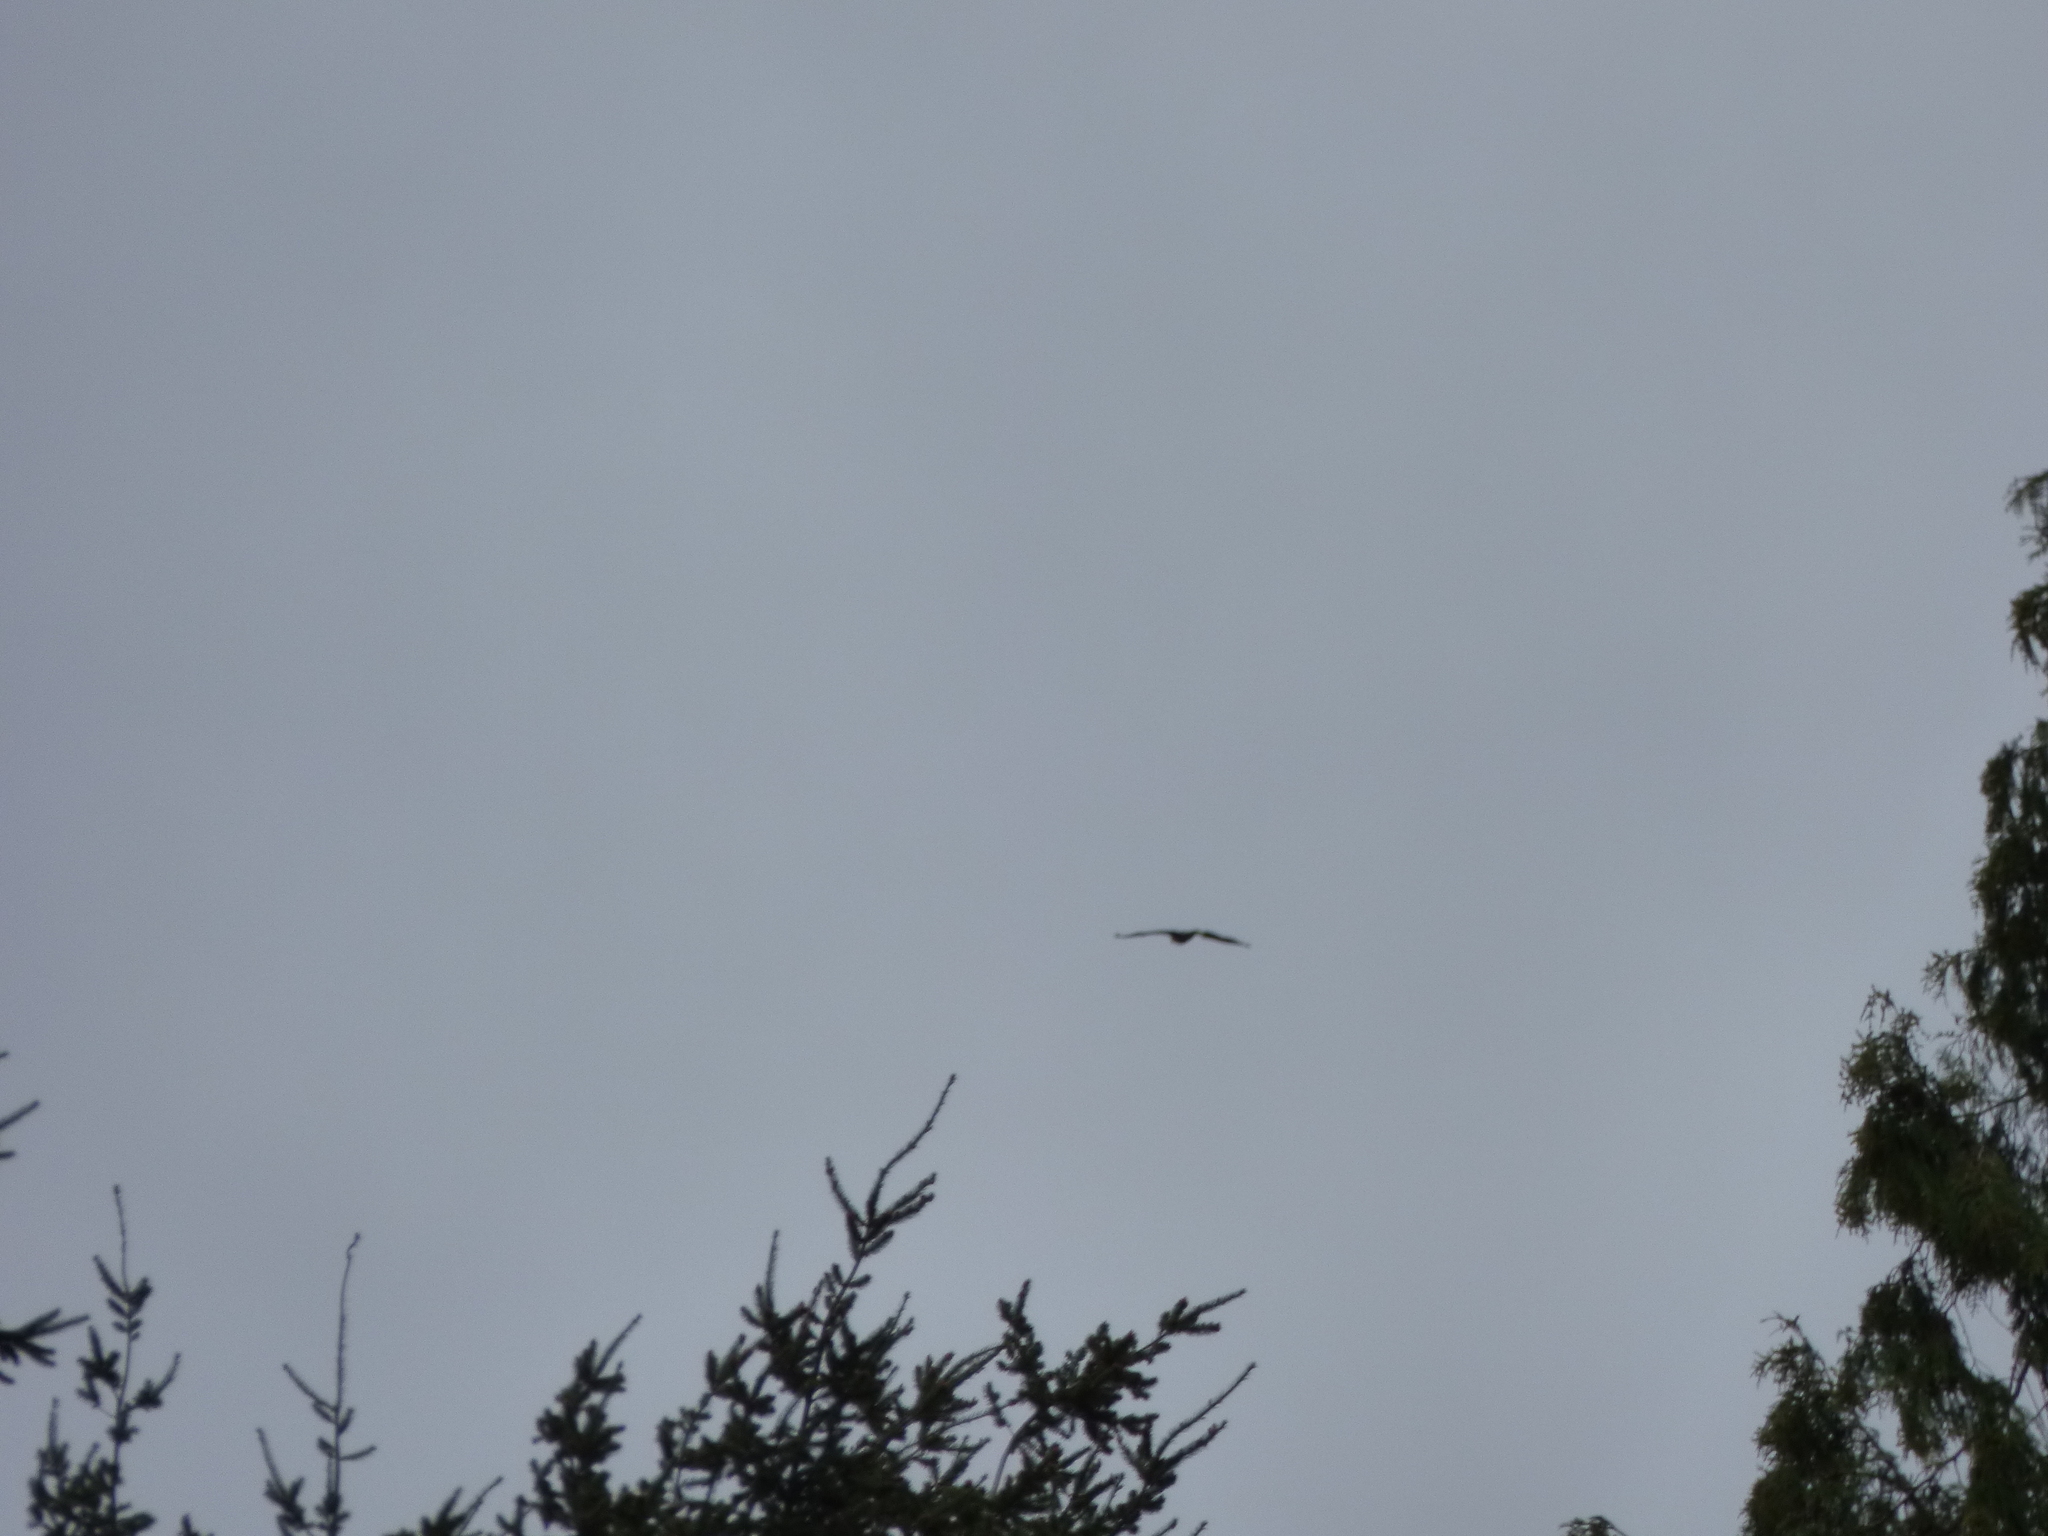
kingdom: Animalia
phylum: Chordata
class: Aves
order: Accipitriformes
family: Accipitridae
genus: Haliaeetus
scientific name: Haliaeetus leucocephalus
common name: Bald eagle
